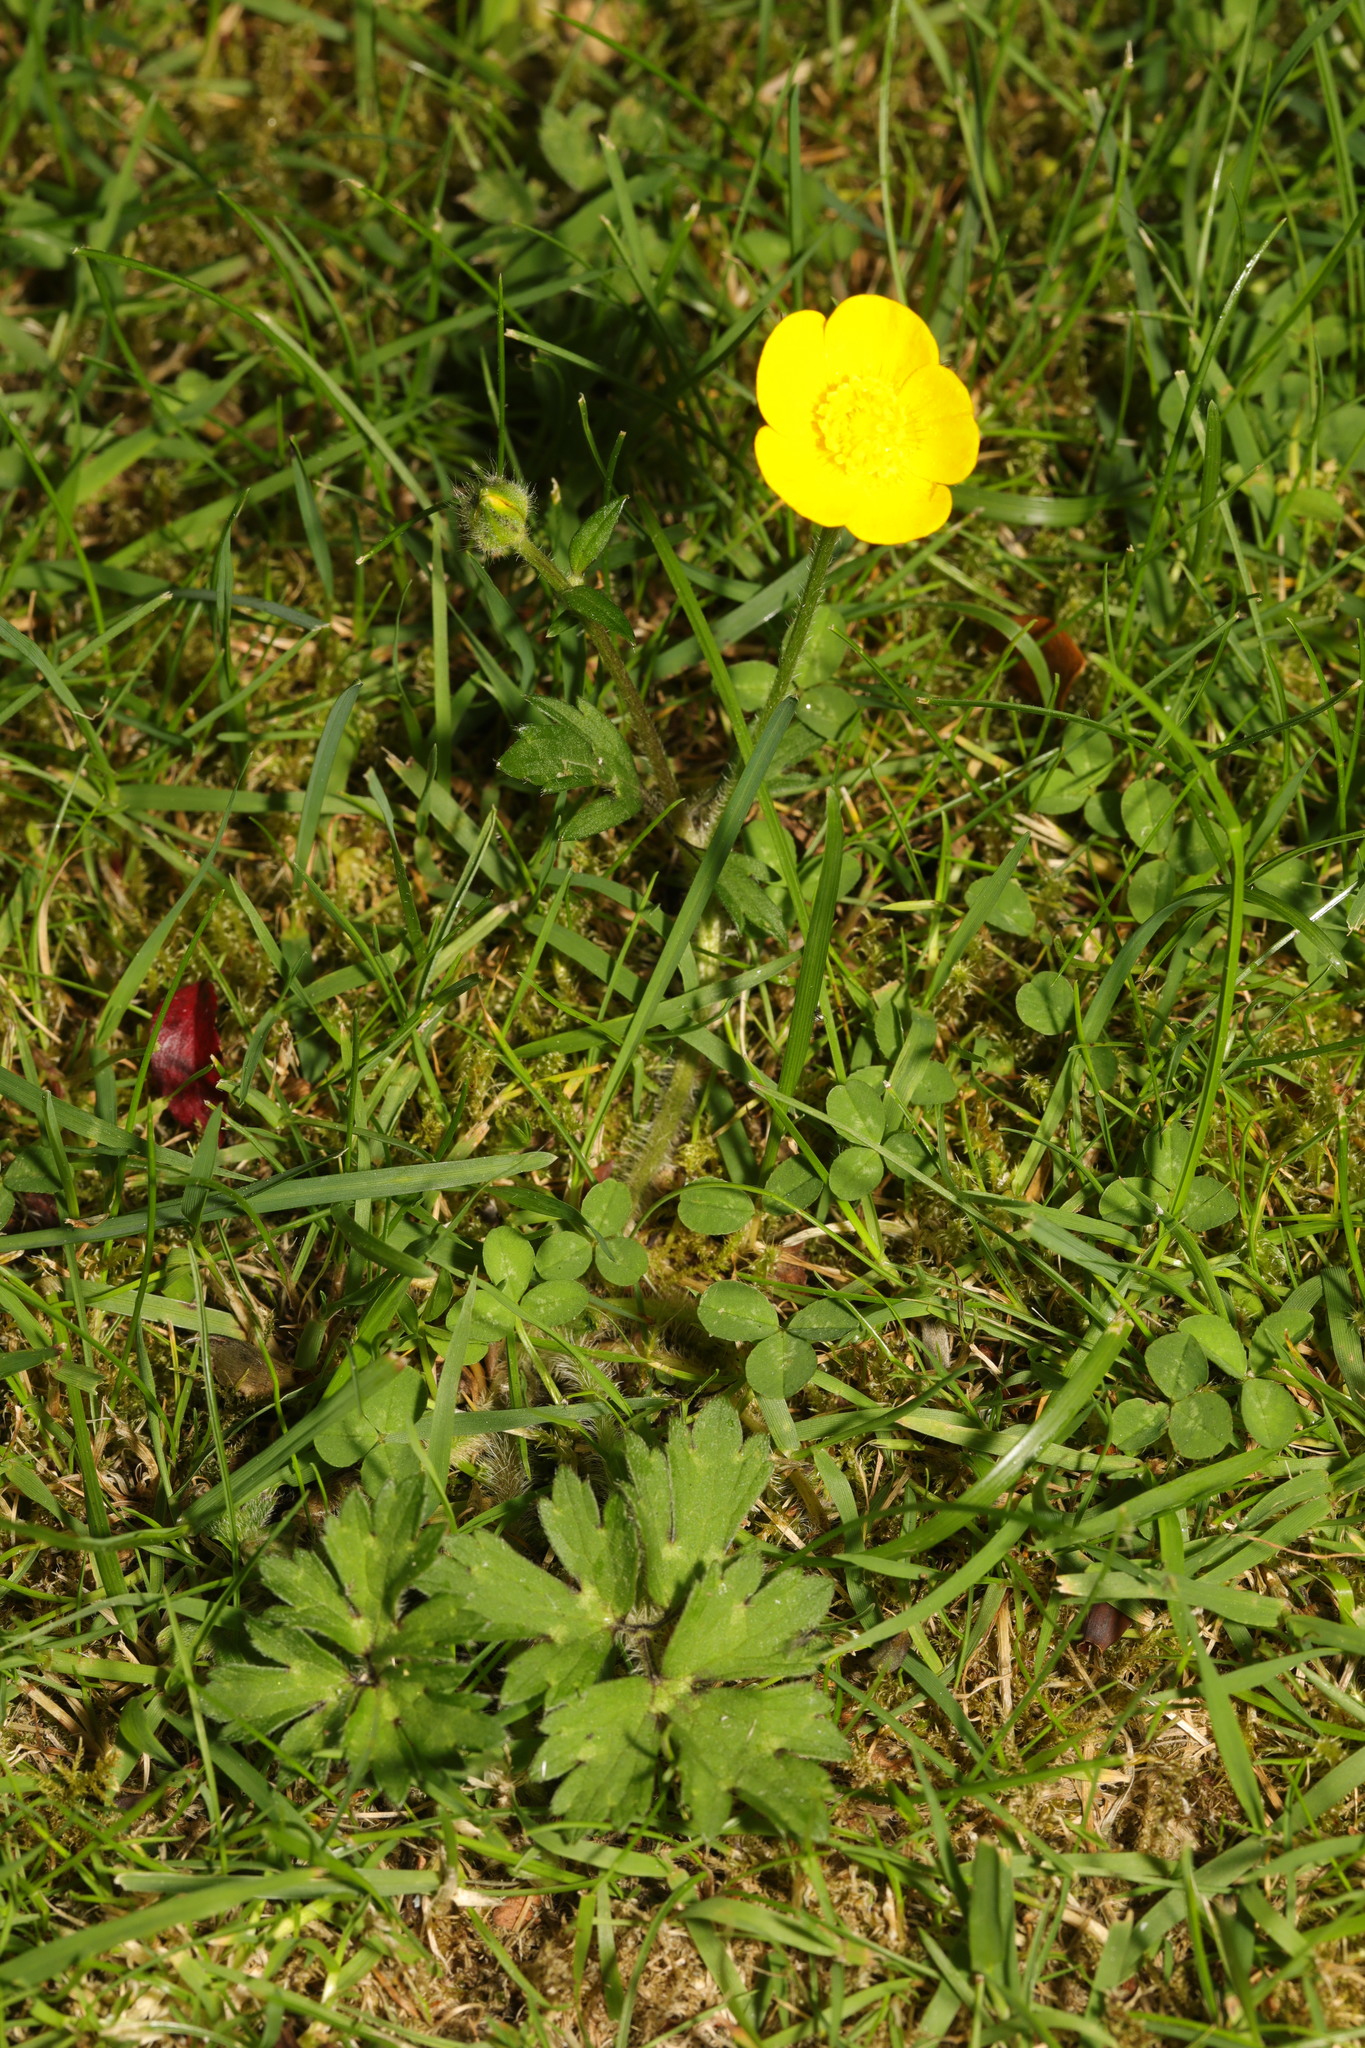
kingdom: Plantae
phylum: Tracheophyta
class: Magnoliopsida
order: Ranunculales
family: Ranunculaceae
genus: Ranunculus
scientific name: Ranunculus repens
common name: Creeping buttercup
